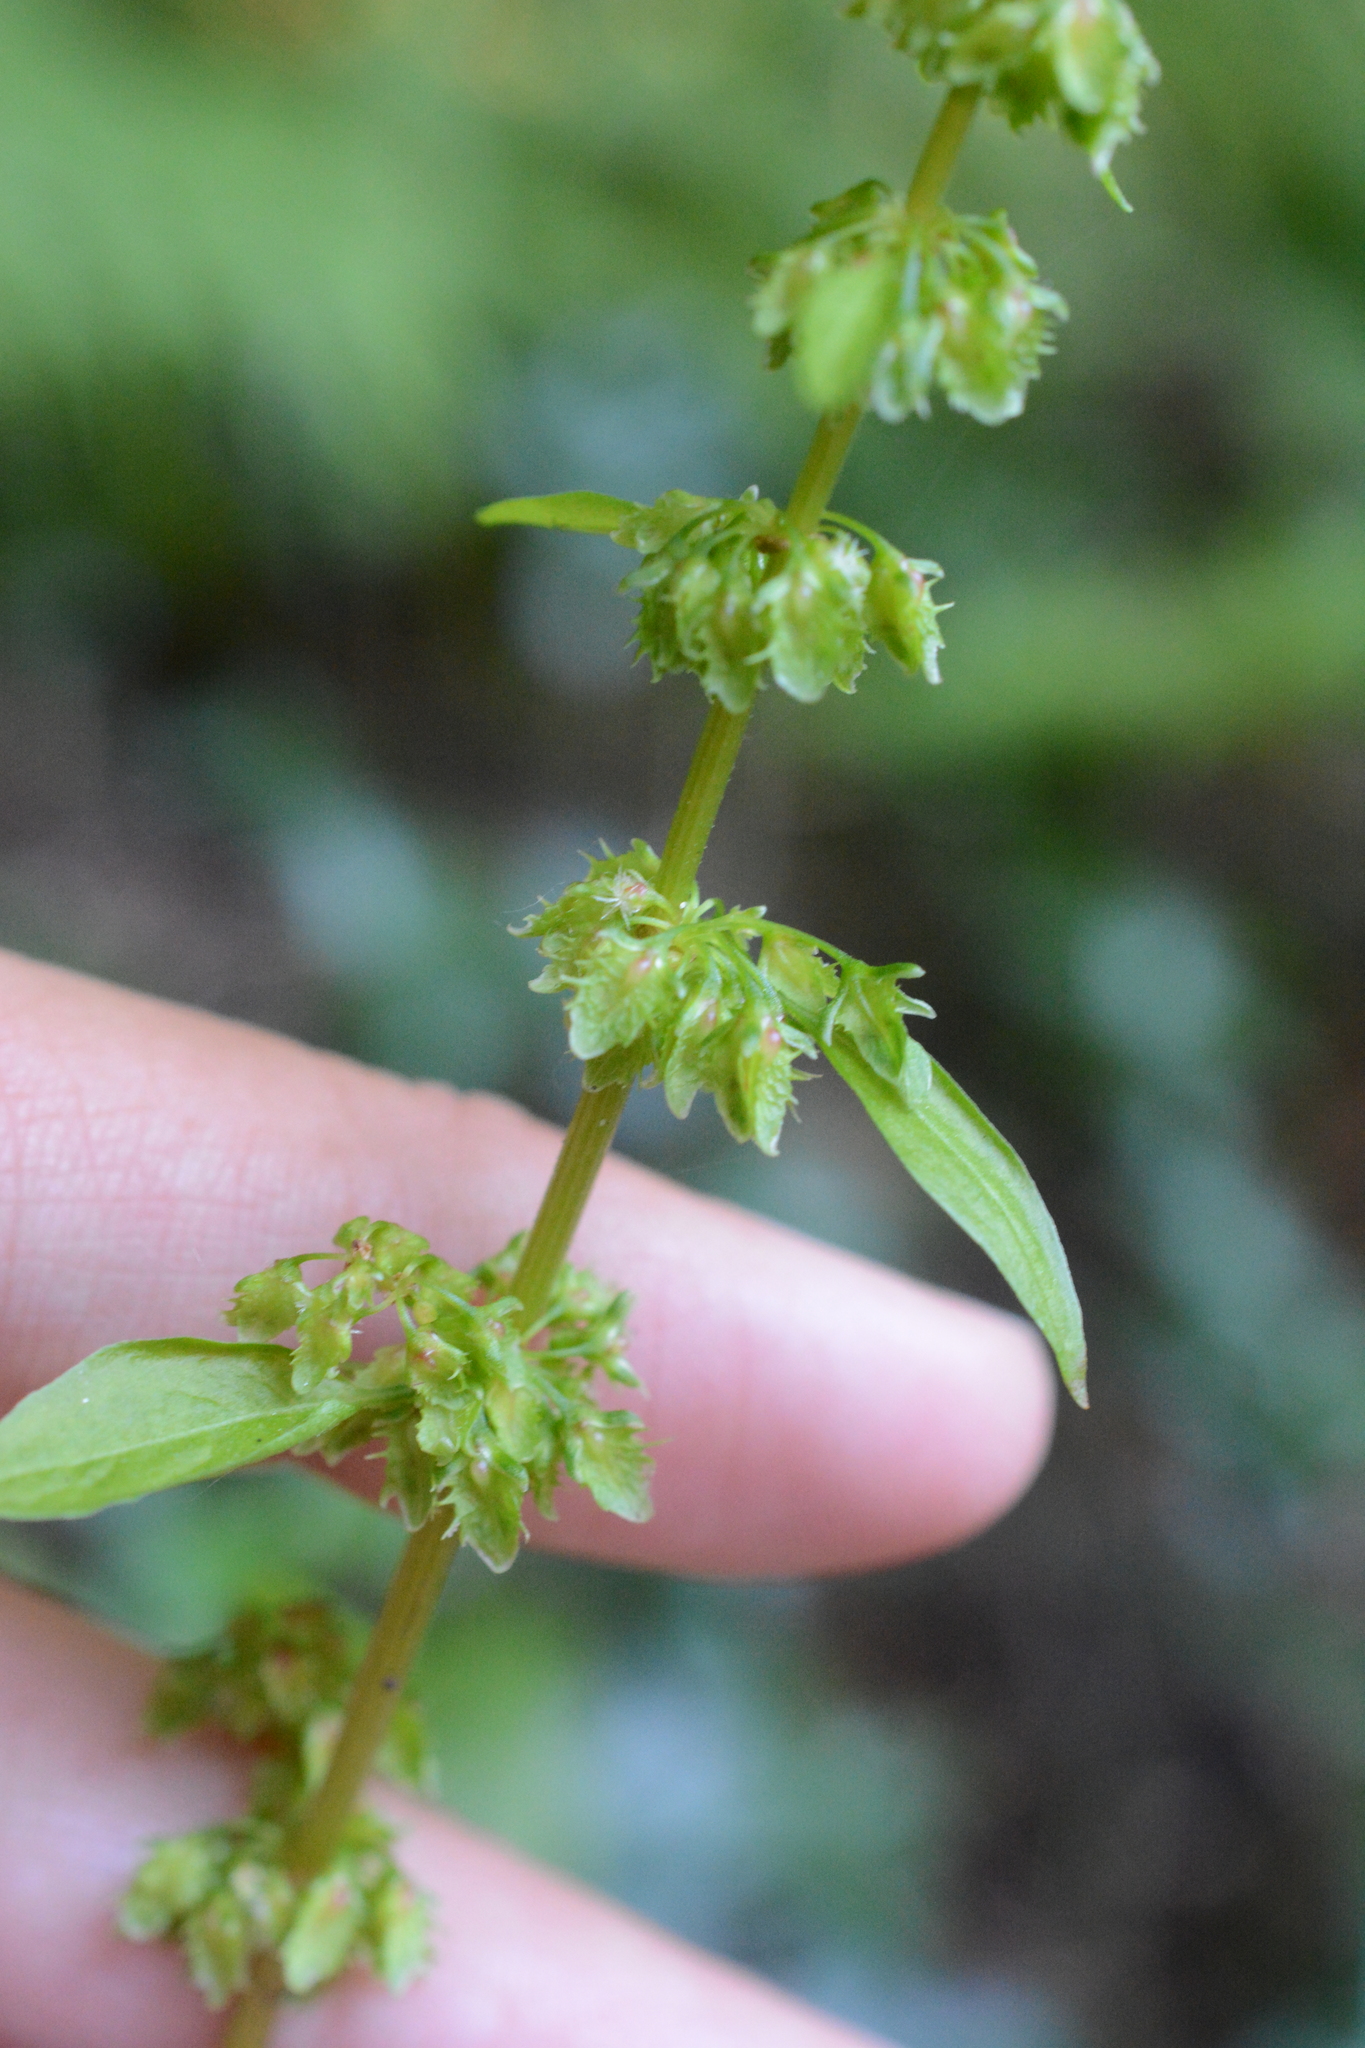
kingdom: Plantae
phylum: Tracheophyta
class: Magnoliopsida
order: Caryophyllales
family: Polygonaceae
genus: Rumex
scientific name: Rumex obtusifolius
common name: Bitter dock
